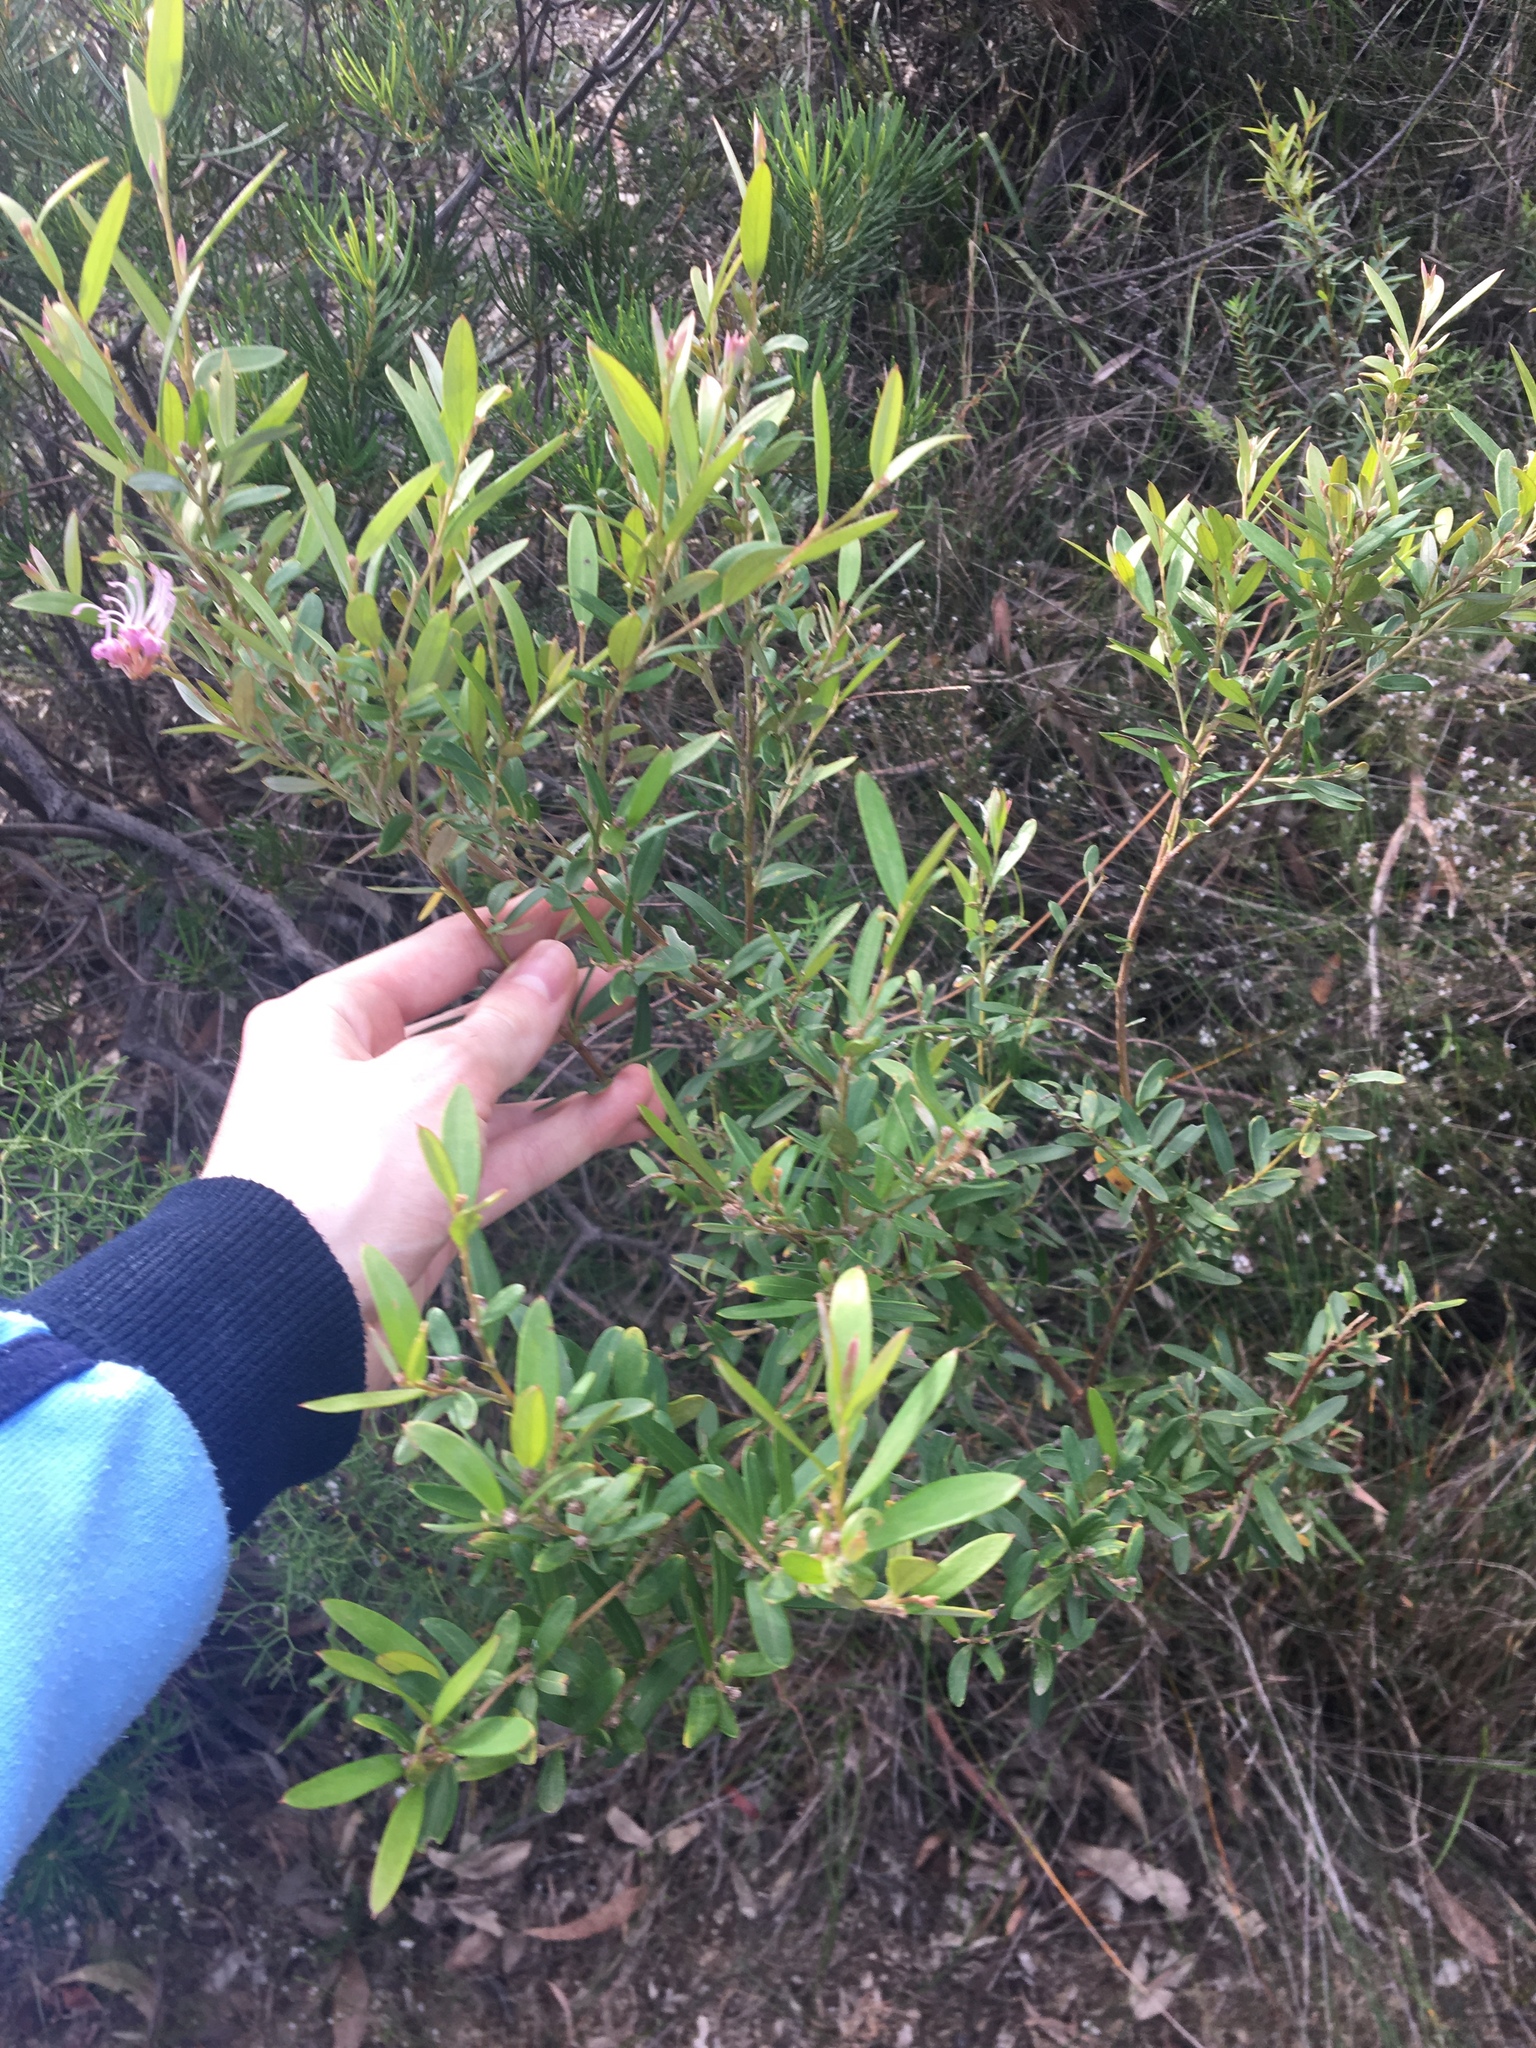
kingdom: Plantae
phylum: Tracheophyta
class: Magnoliopsida
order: Proteales
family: Proteaceae
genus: Grevillea
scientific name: Grevillea sericea
